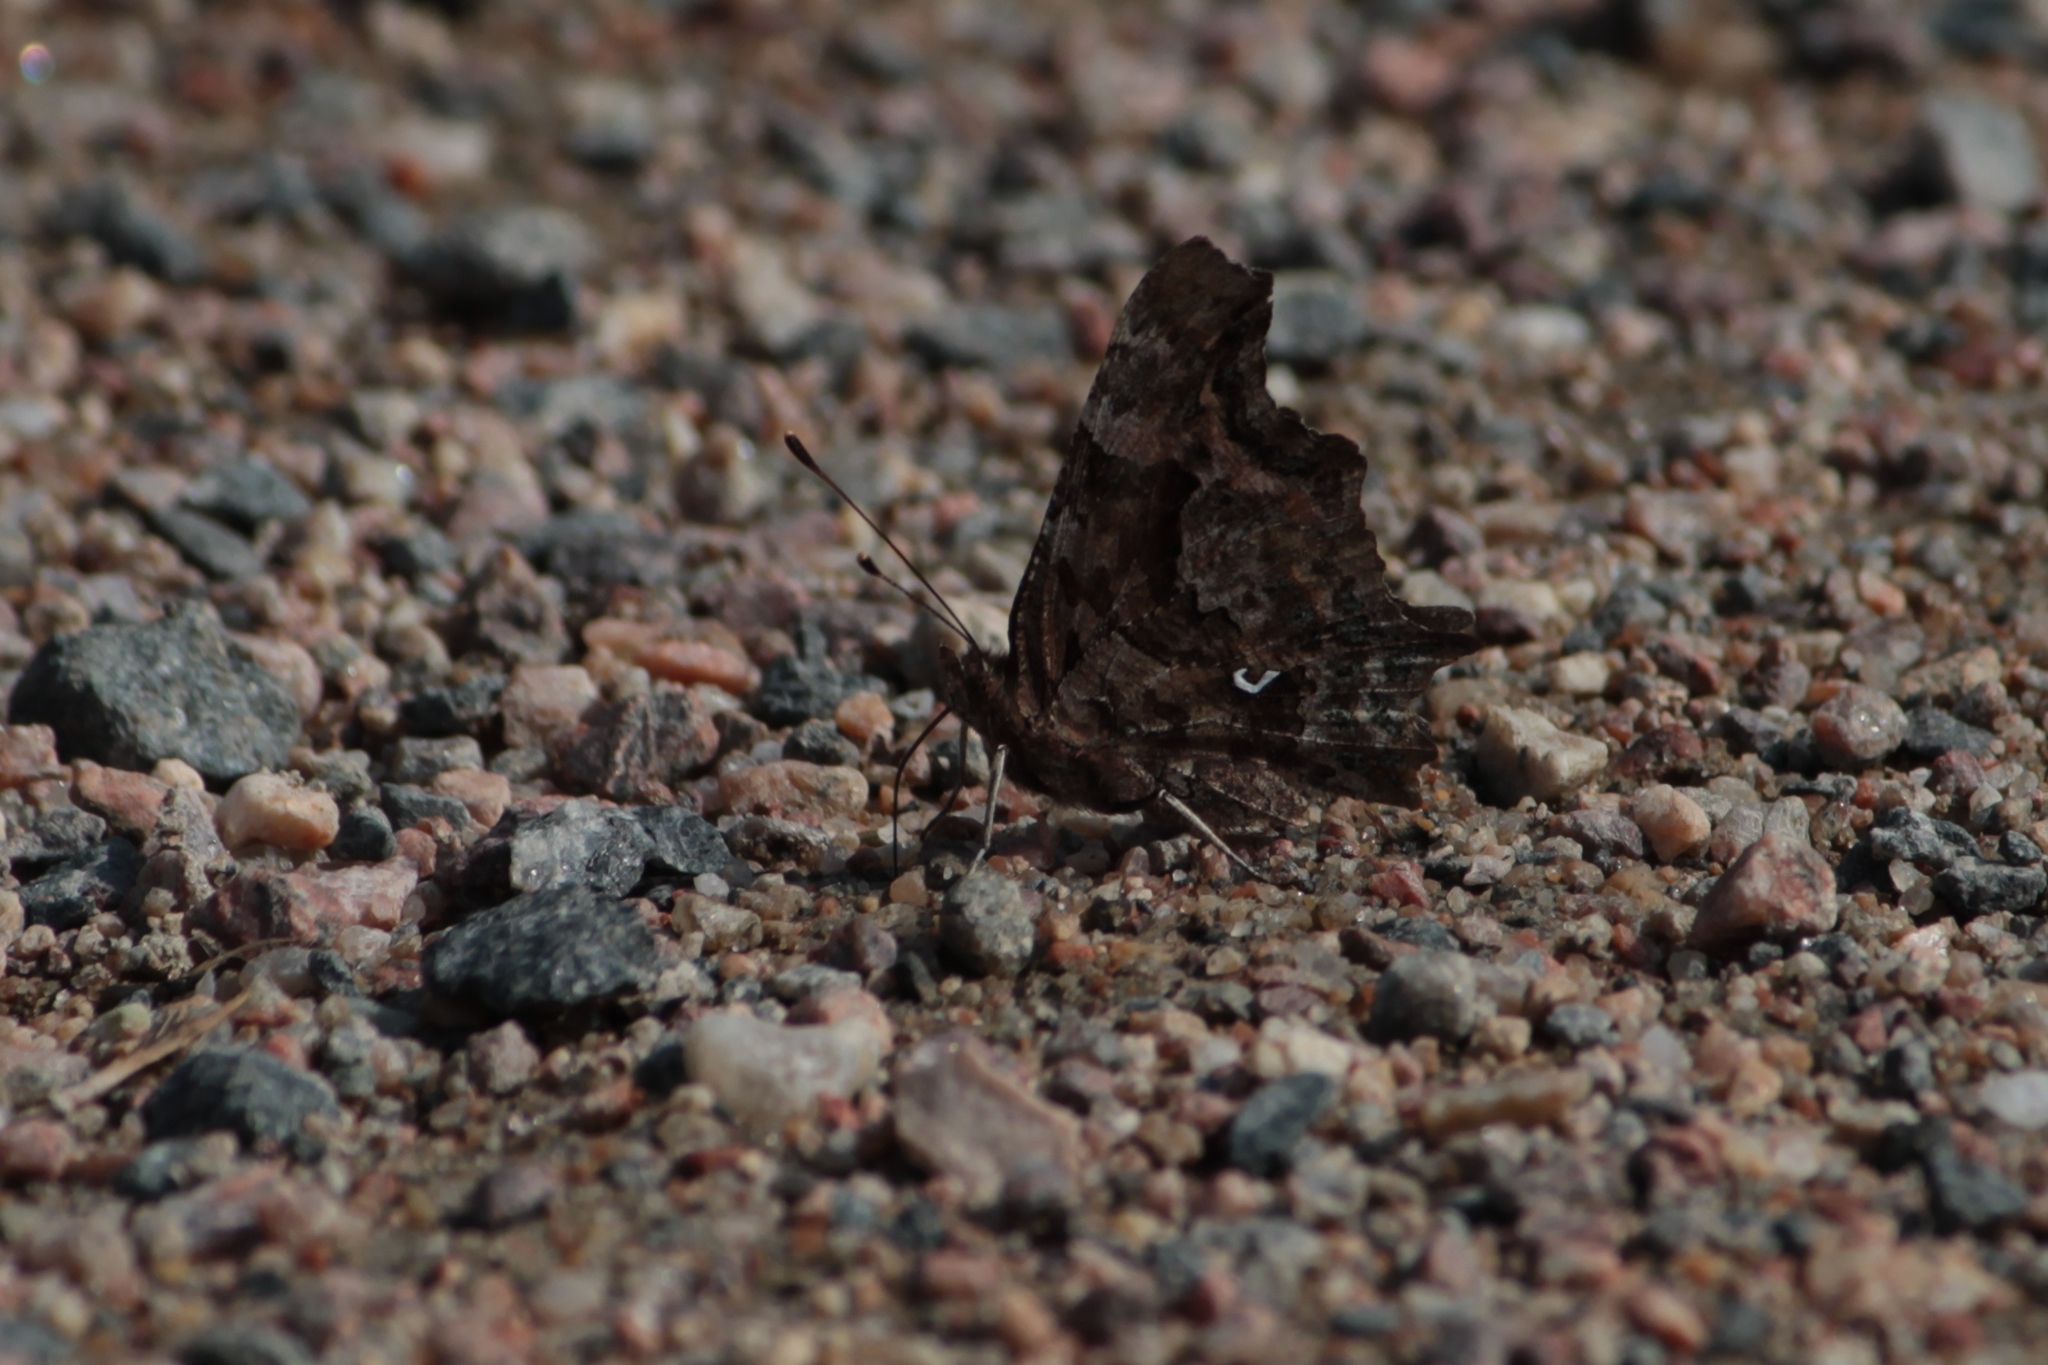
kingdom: Animalia
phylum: Arthropoda
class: Insecta
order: Lepidoptera
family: Nymphalidae
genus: Polygonia
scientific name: Polygonia c-album
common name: Comma
